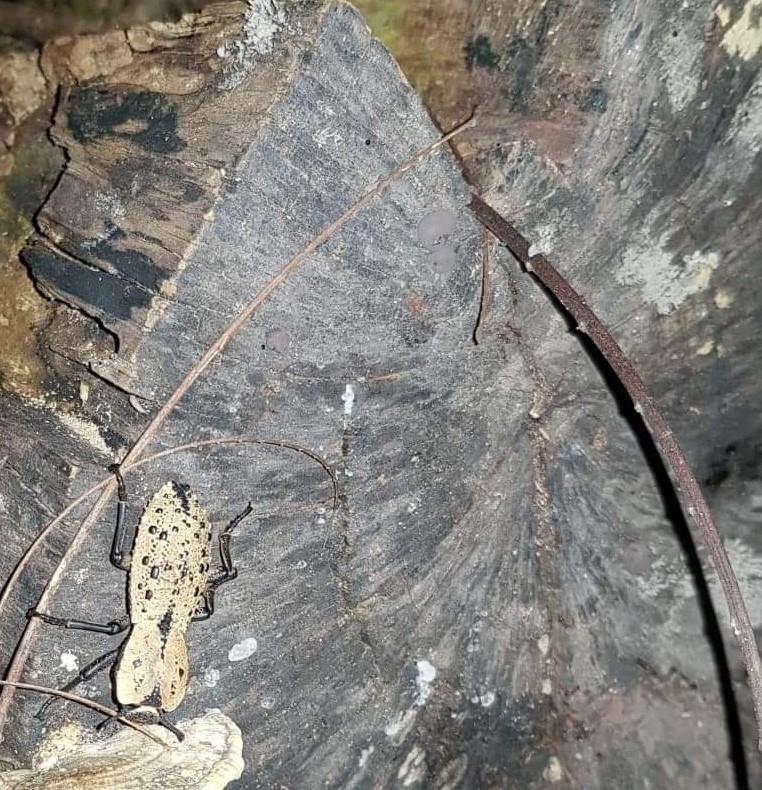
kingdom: Animalia
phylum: Arthropoda
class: Insecta
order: Coleoptera
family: Zopheridae
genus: Zopherus
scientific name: Zopherus
